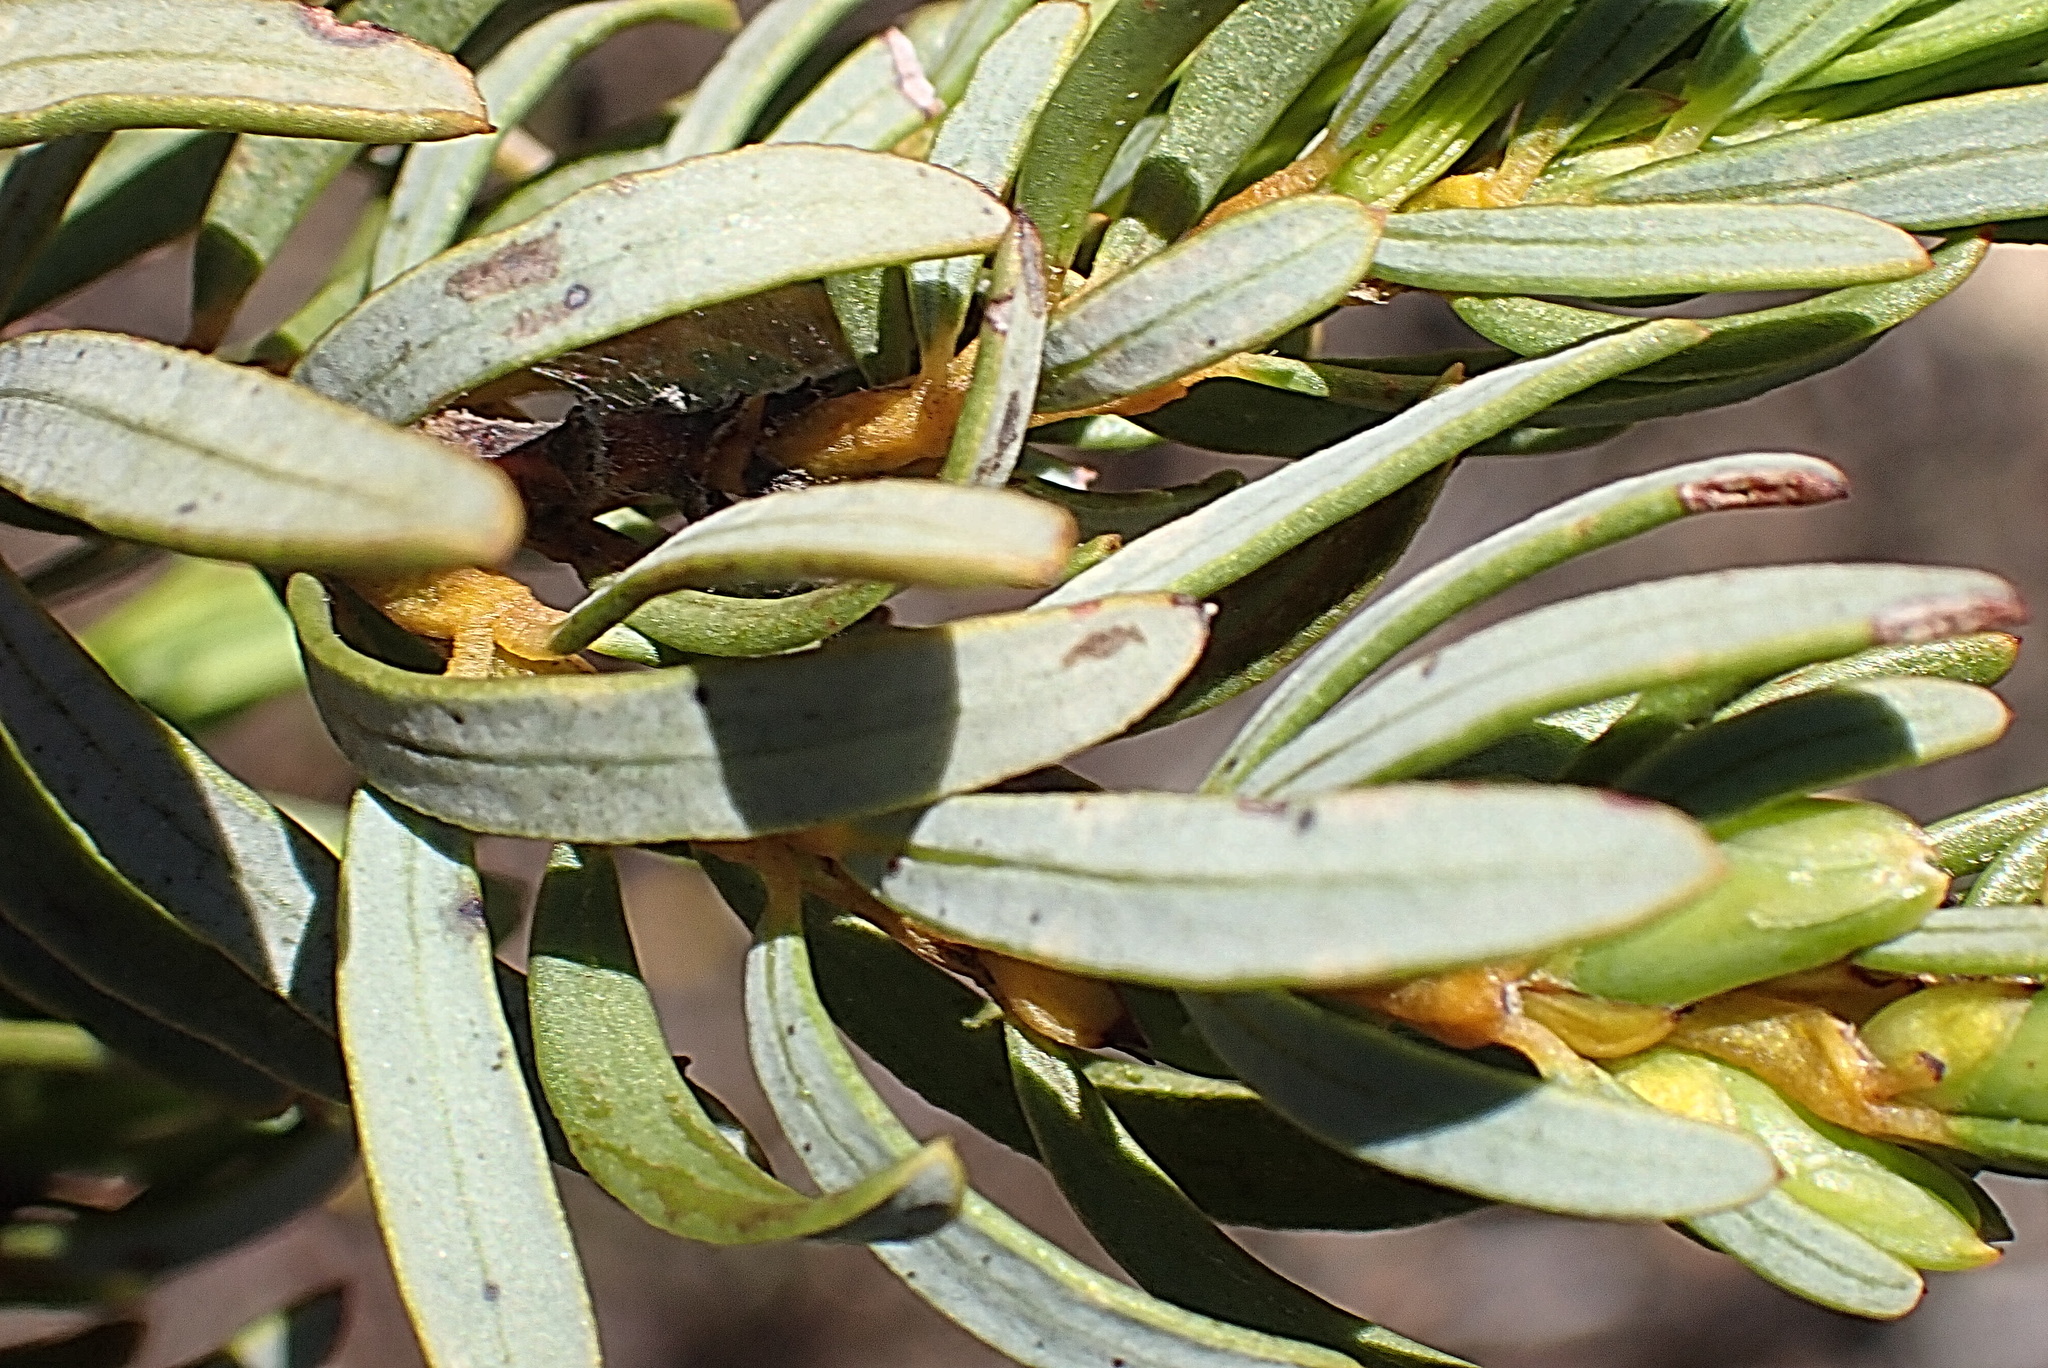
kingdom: Plantae
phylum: Tracheophyta
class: Magnoliopsida
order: Fabales
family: Fabaceae
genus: Cyclopia
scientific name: Cyclopia intermedia
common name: Mountain tea
